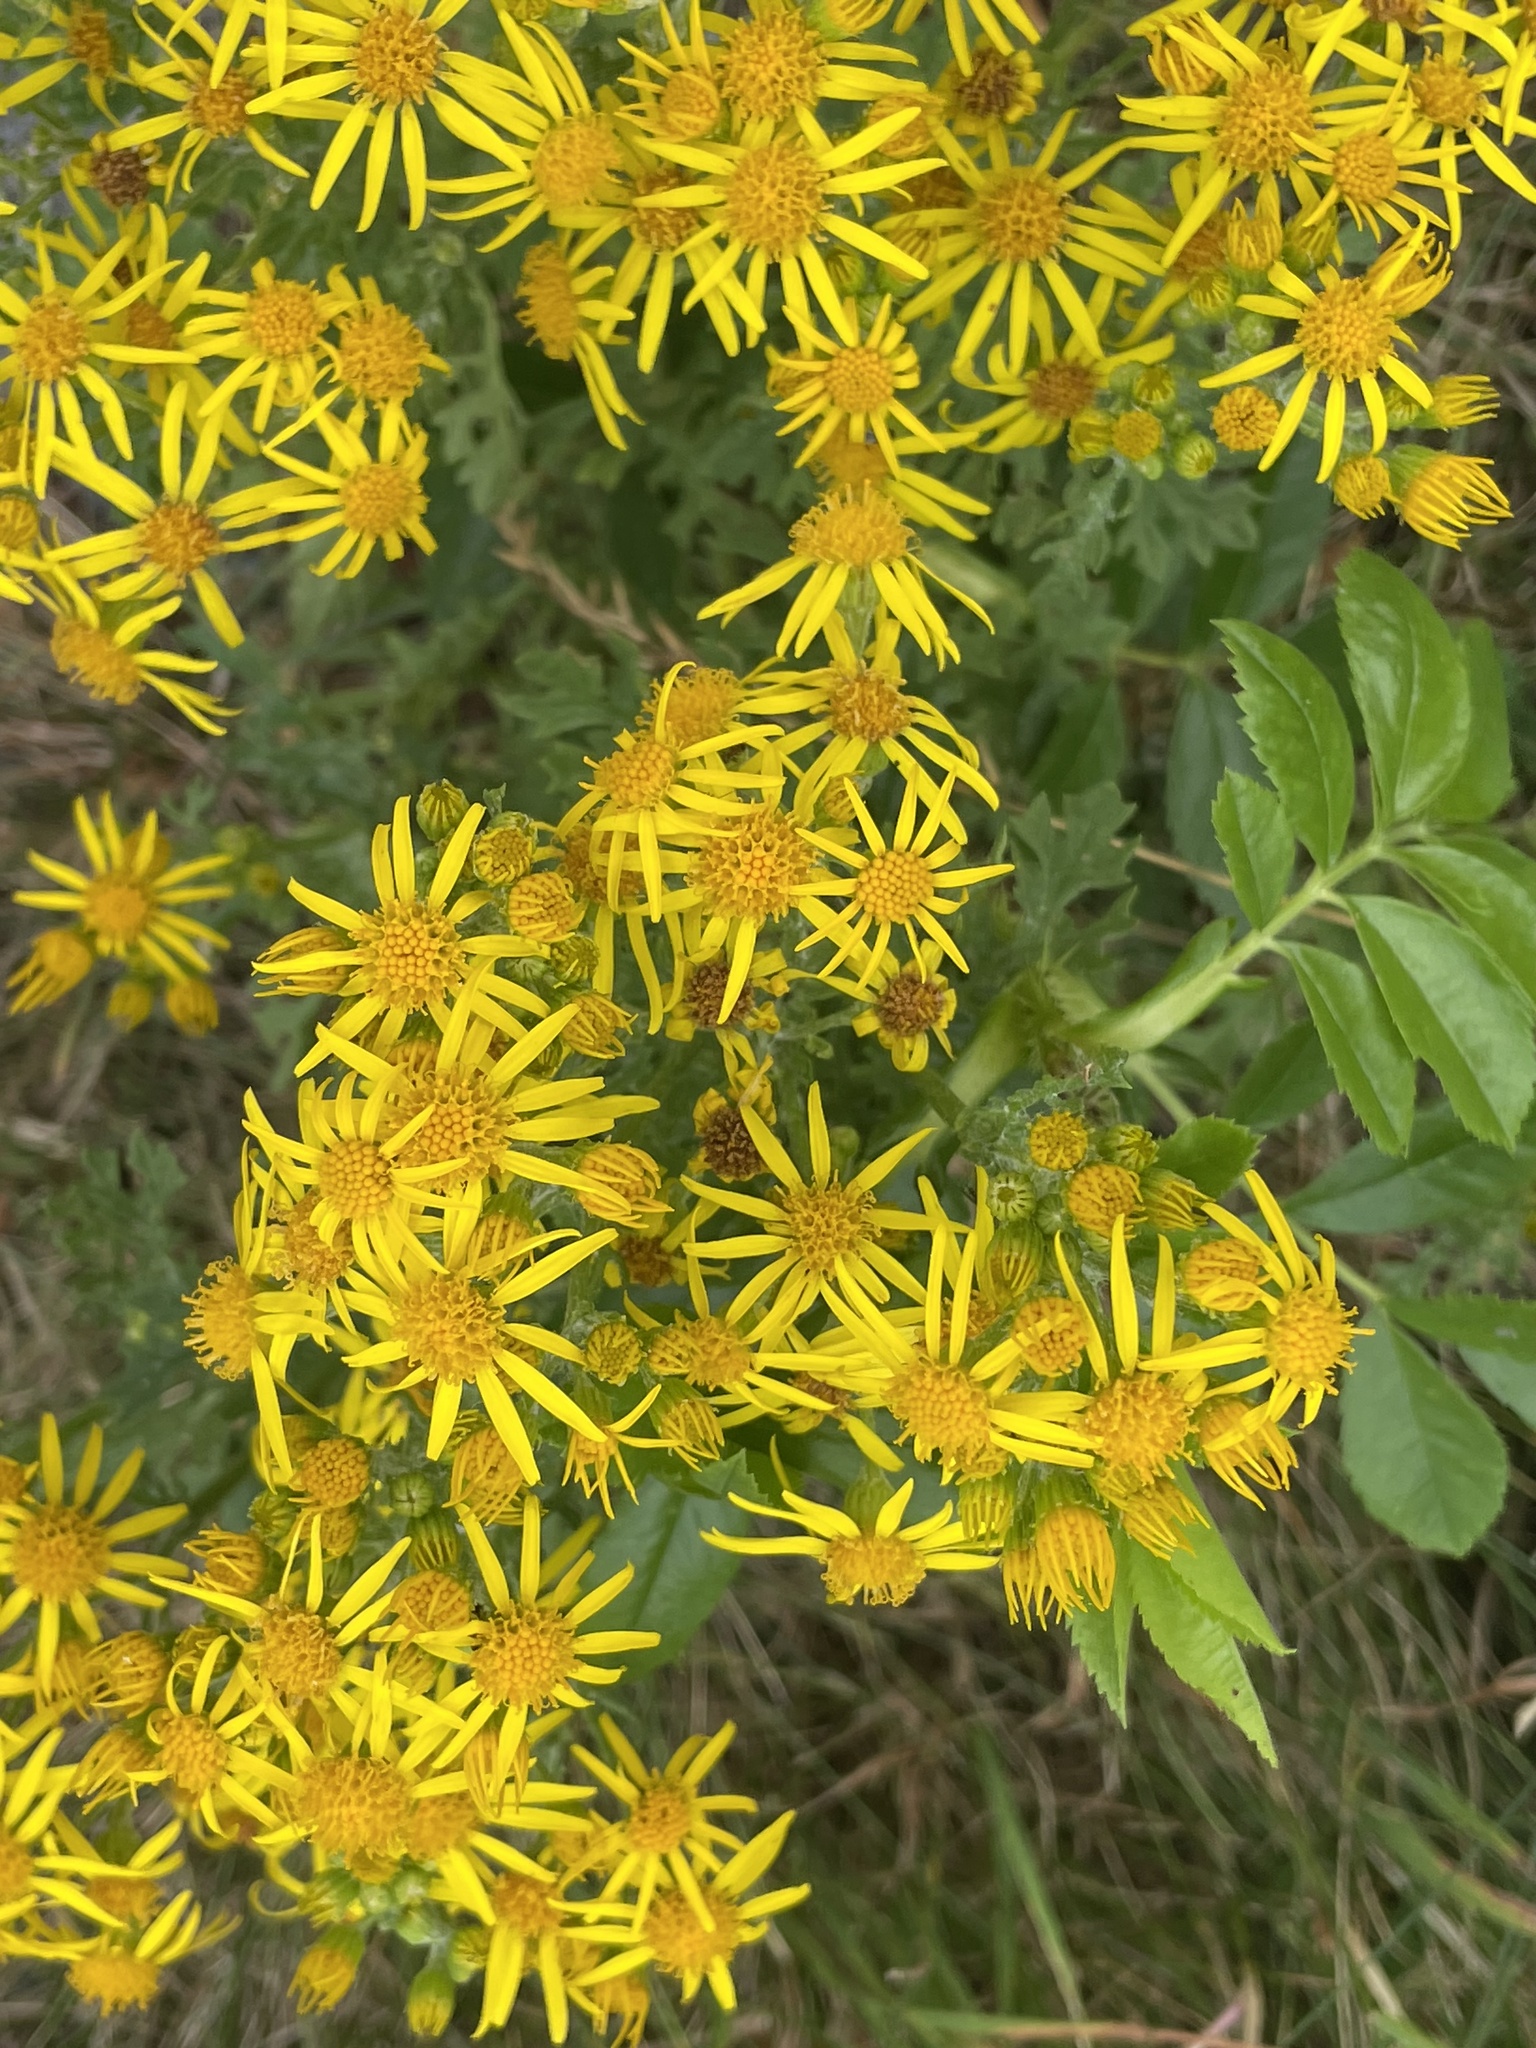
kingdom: Plantae
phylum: Tracheophyta
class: Magnoliopsida
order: Asterales
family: Asteraceae
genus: Jacobaea
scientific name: Jacobaea vulgaris
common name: Stinking willie
